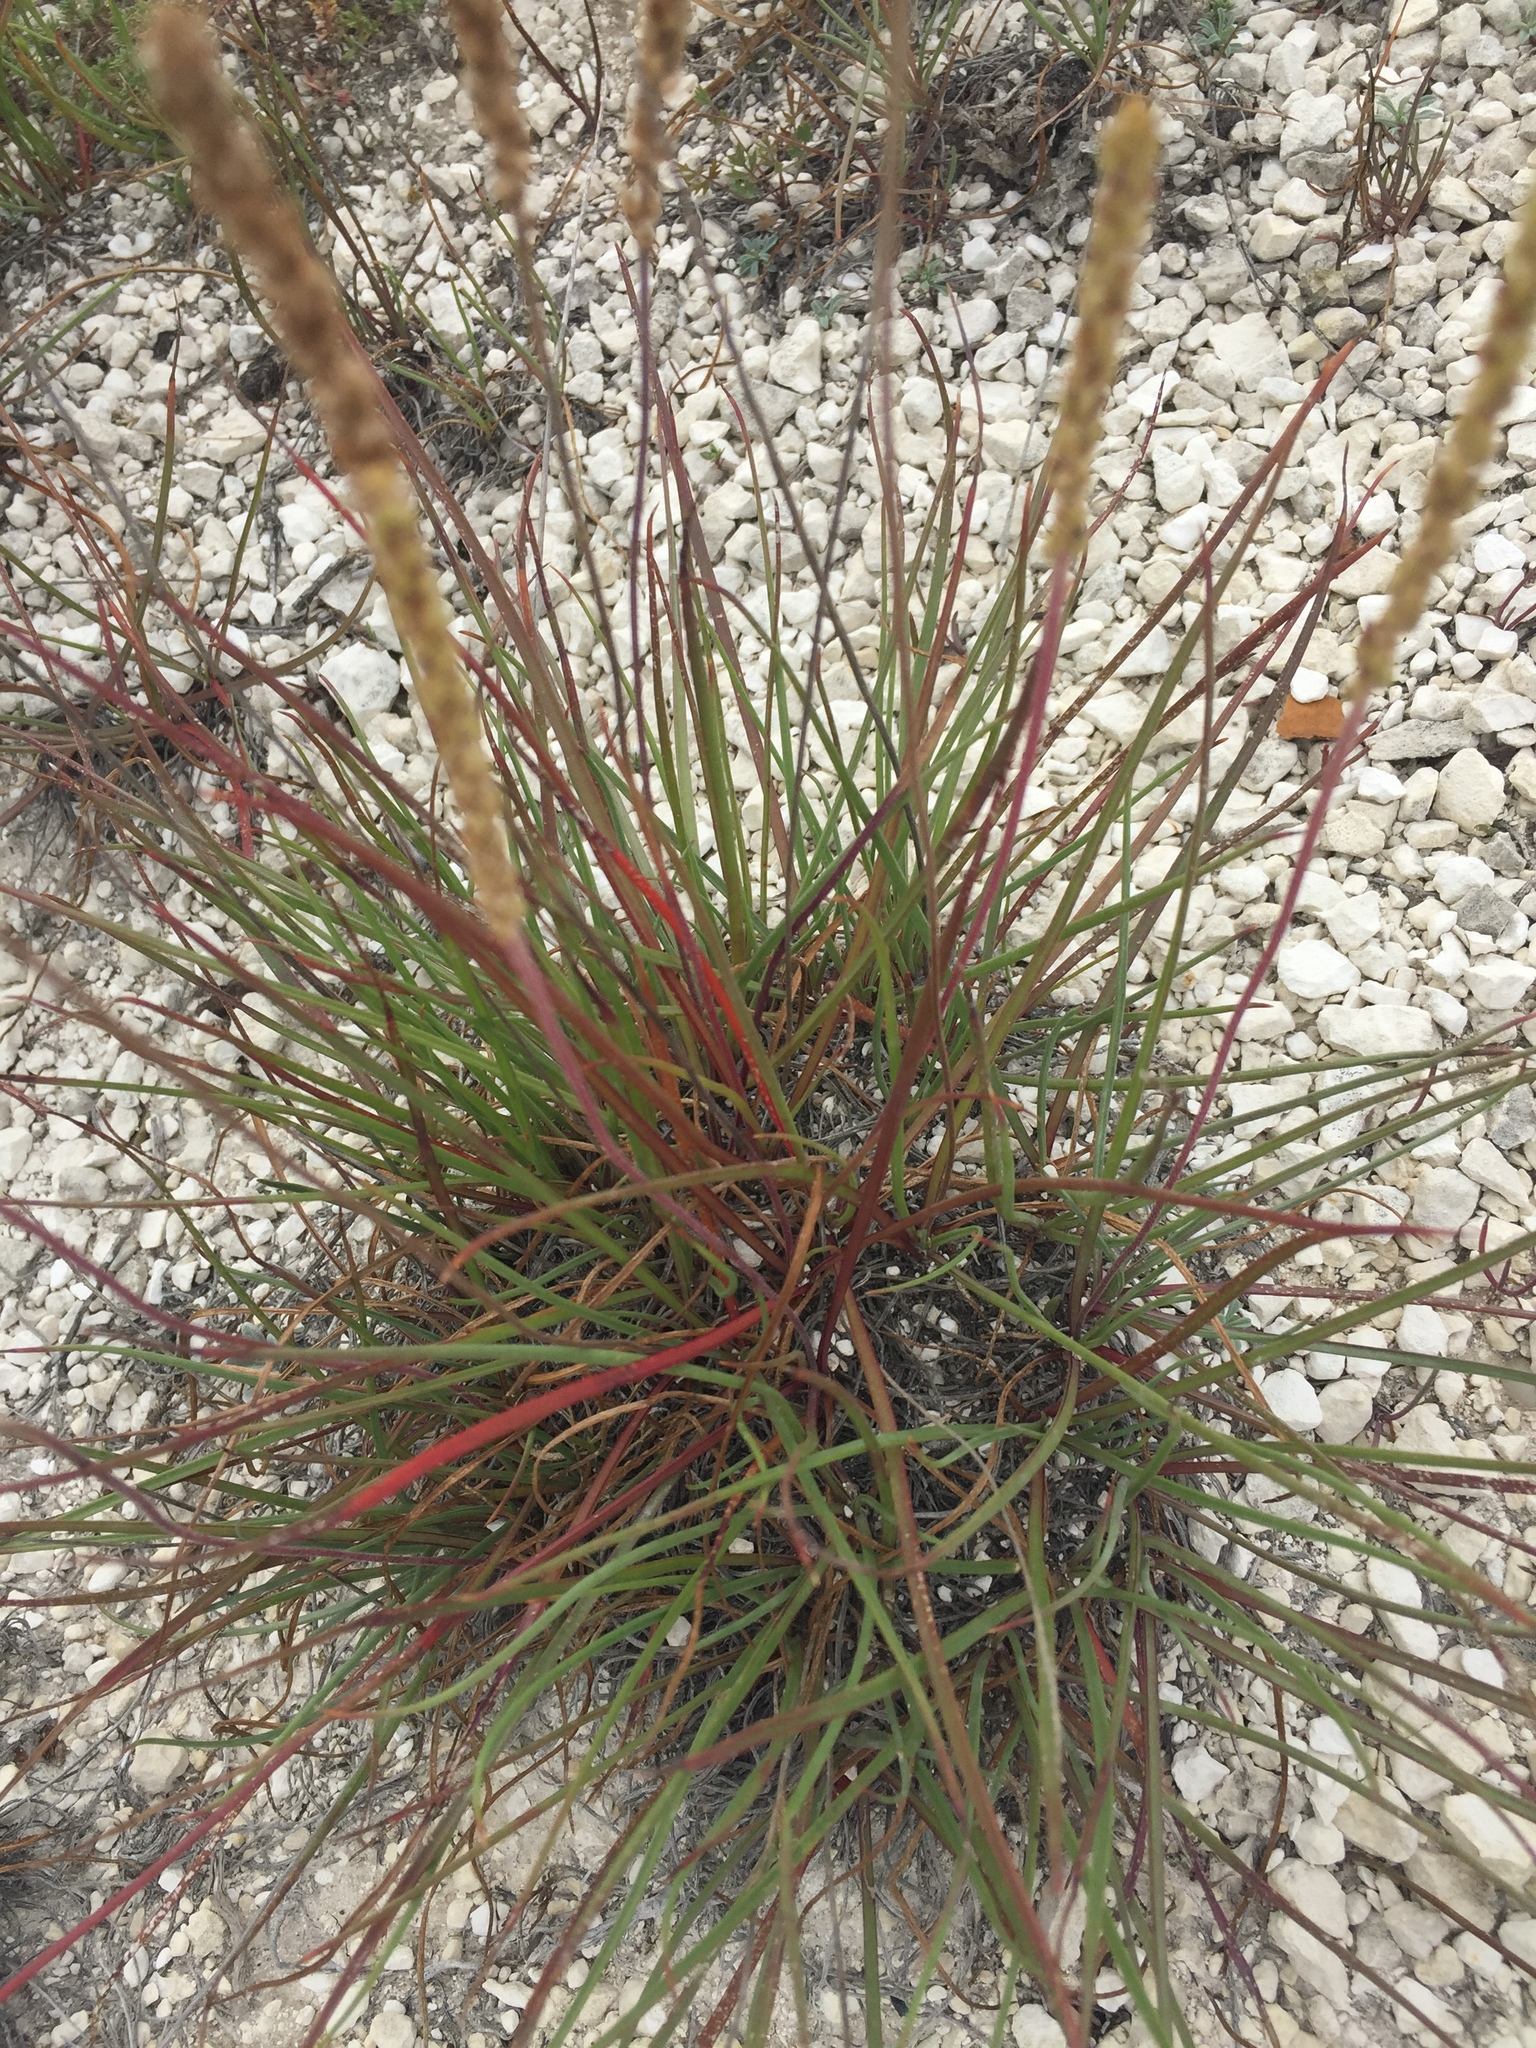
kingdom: Plantae
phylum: Tracheophyta
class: Magnoliopsida
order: Lamiales
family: Plantaginaceae
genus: Plantago
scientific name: Plantago salsa
